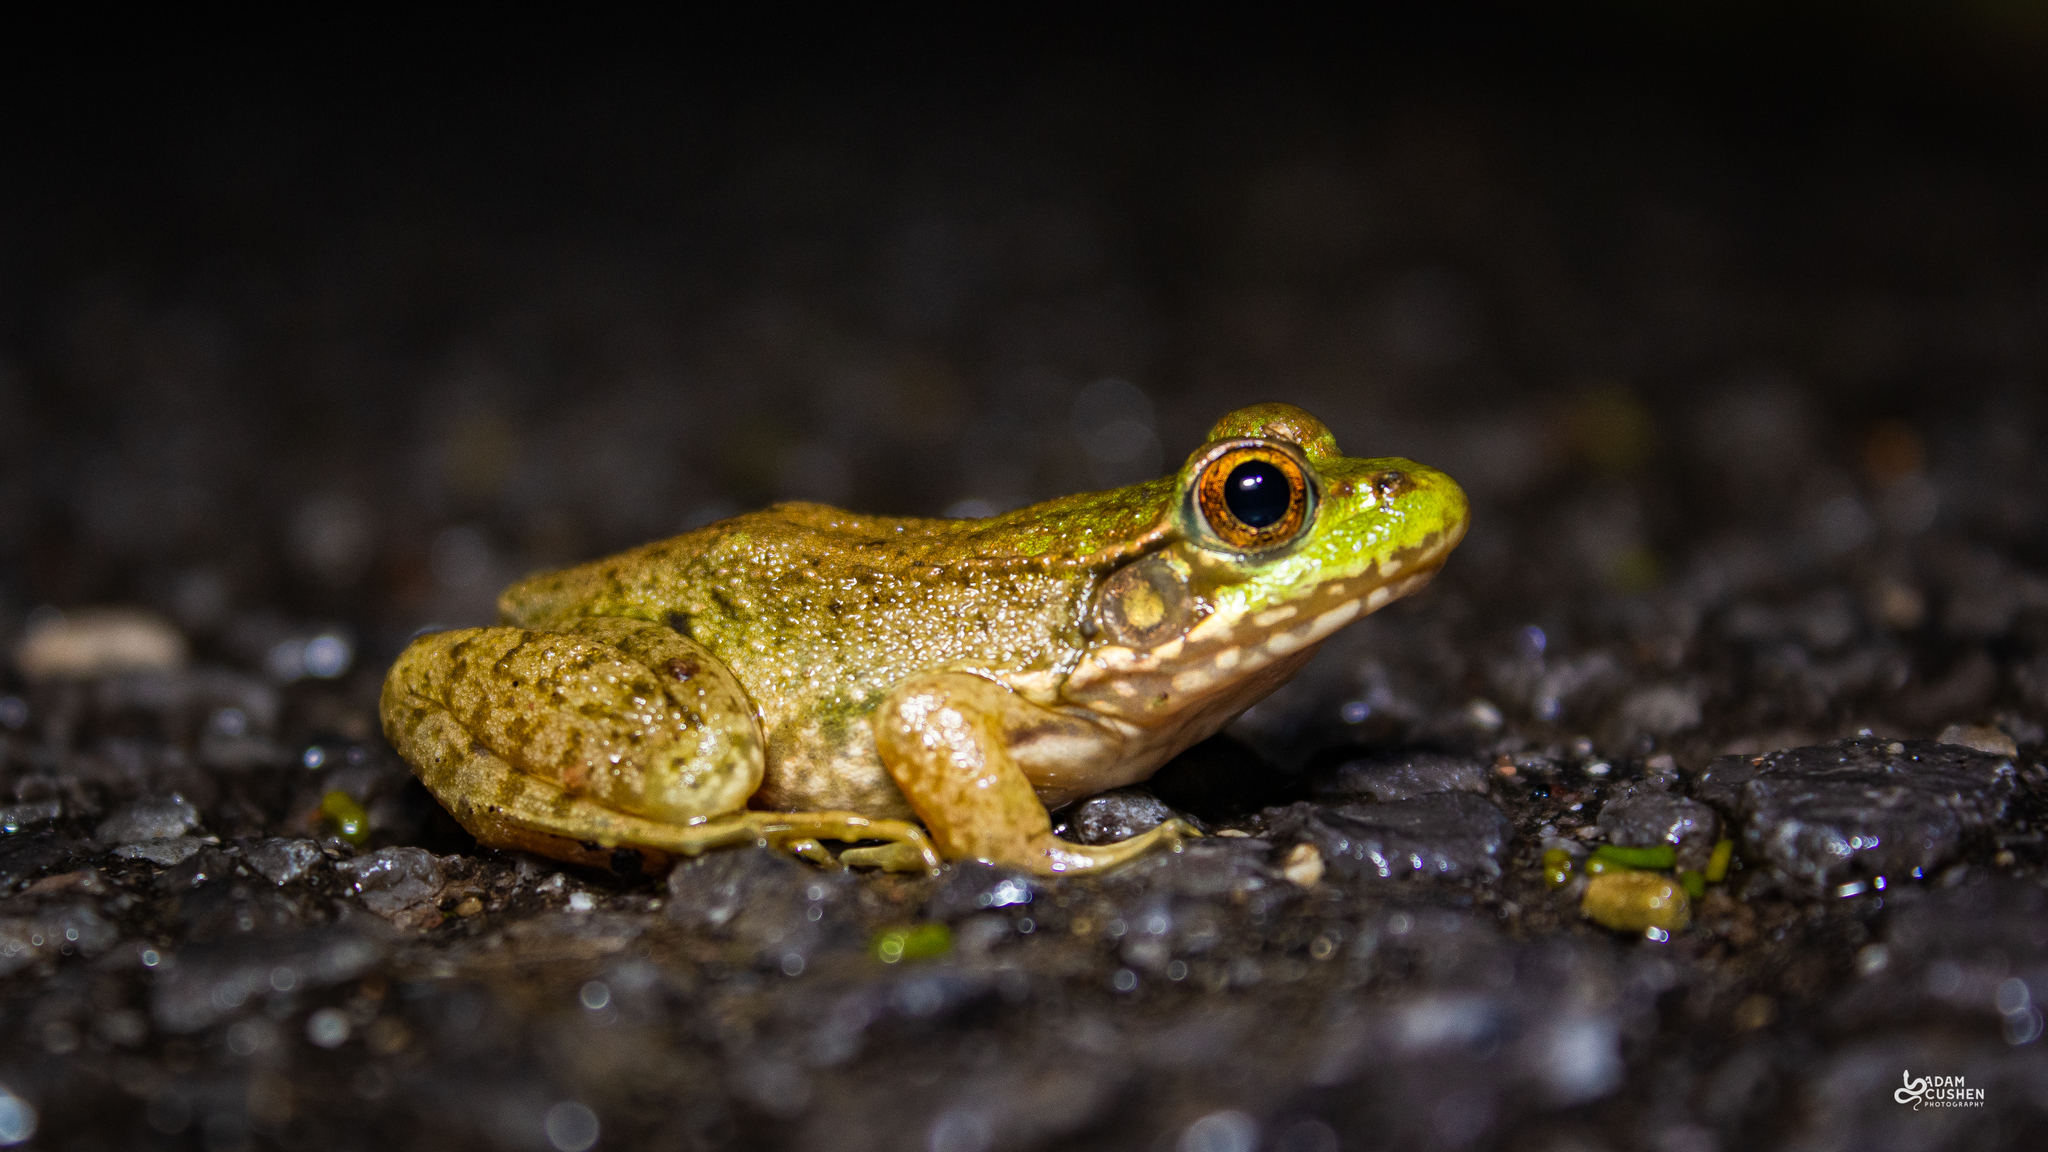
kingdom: Animalia
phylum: Chordata
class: Amphibia
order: Anura
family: Ranidae
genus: Lithobates
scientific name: Lithobates clamitans
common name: Green frog
